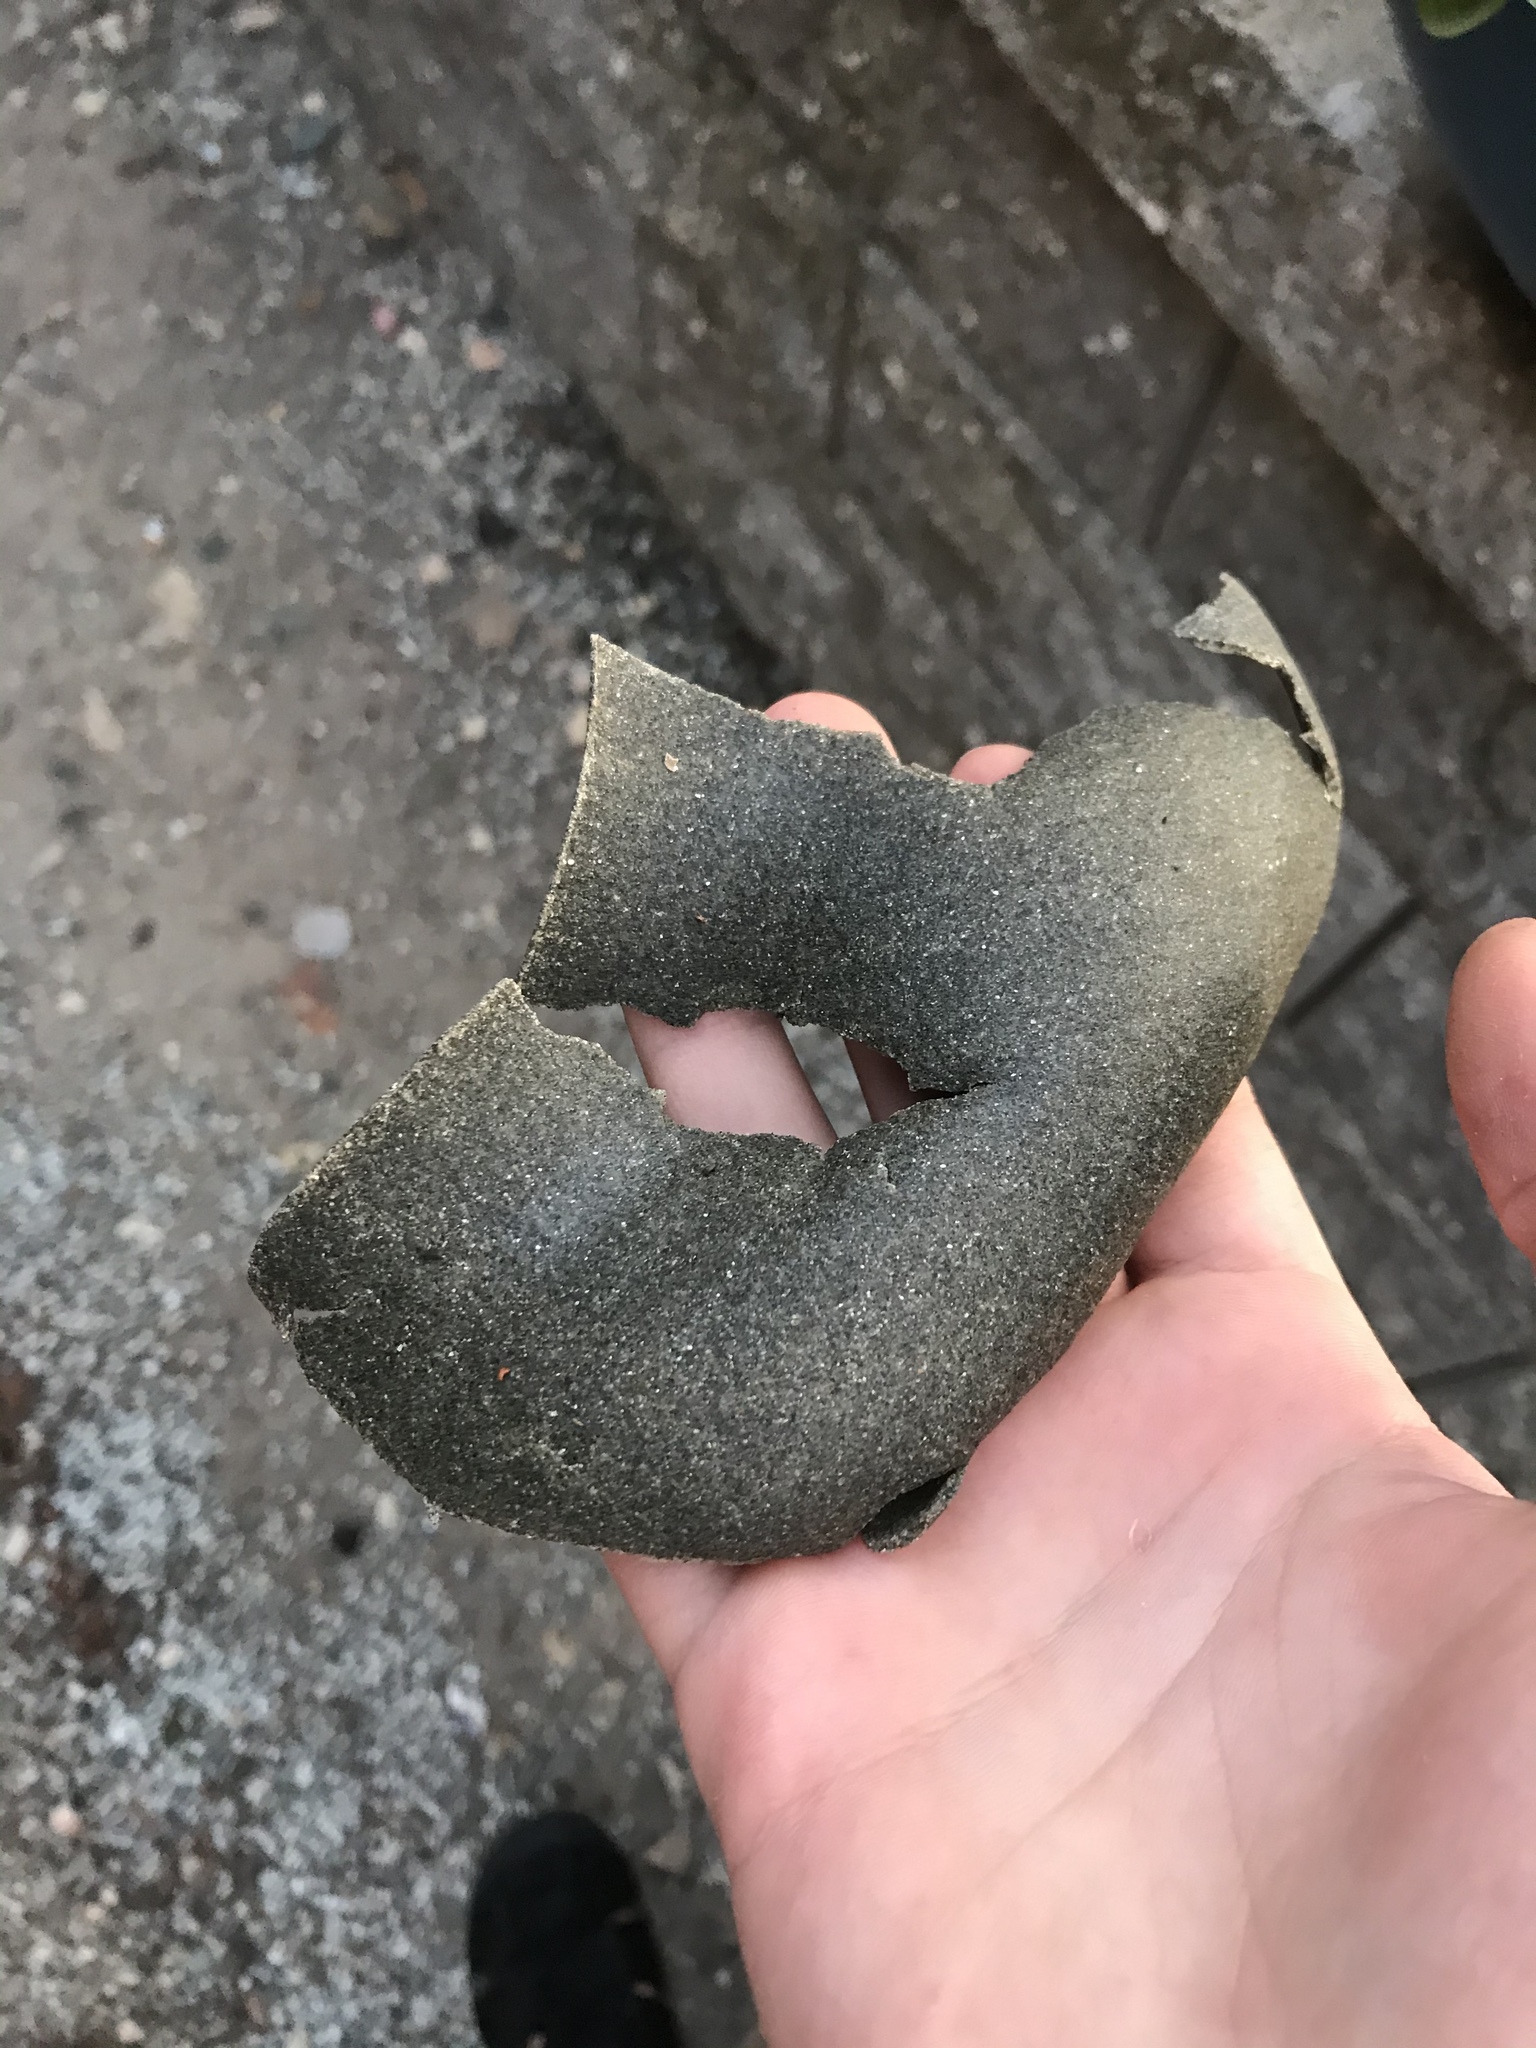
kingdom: Animalia
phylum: Mollusca
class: Gastropoda
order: Littorinimorpha
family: Naticidae
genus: Neverita
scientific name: Neverita lewisii
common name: Lewis' moonsnail
